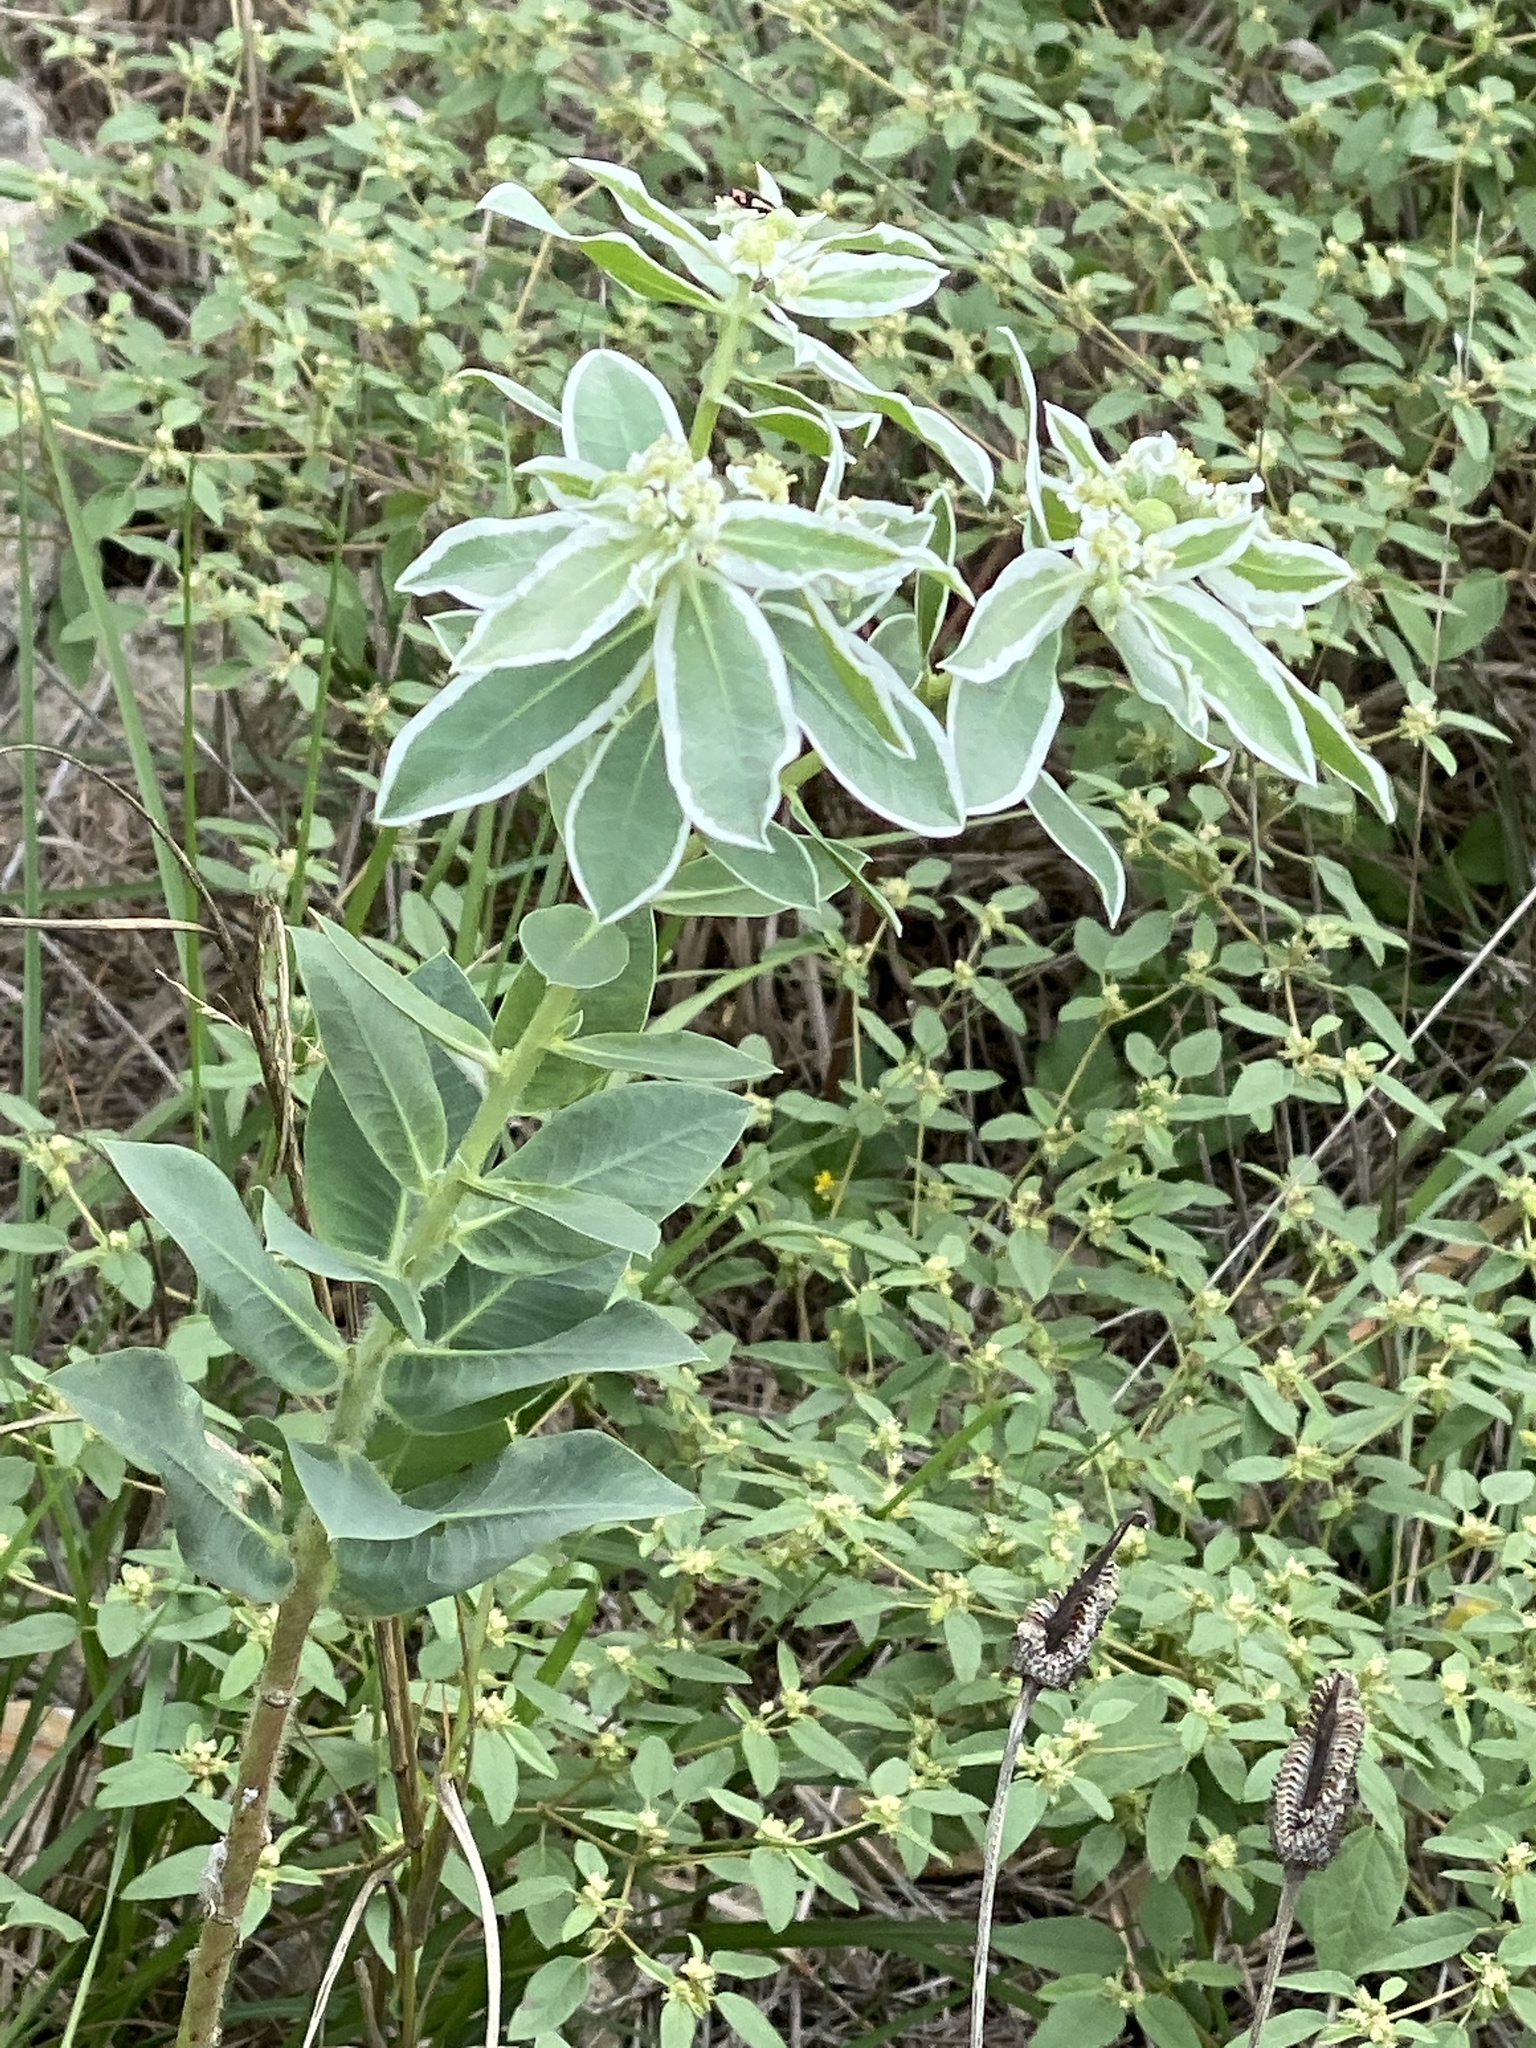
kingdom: Plantae
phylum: Tracheophyta
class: Magnoliopsida
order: Malpighiales
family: Euphorbiaceae
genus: Euphorbia
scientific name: Euphorbia marginata
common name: Ghostweed
